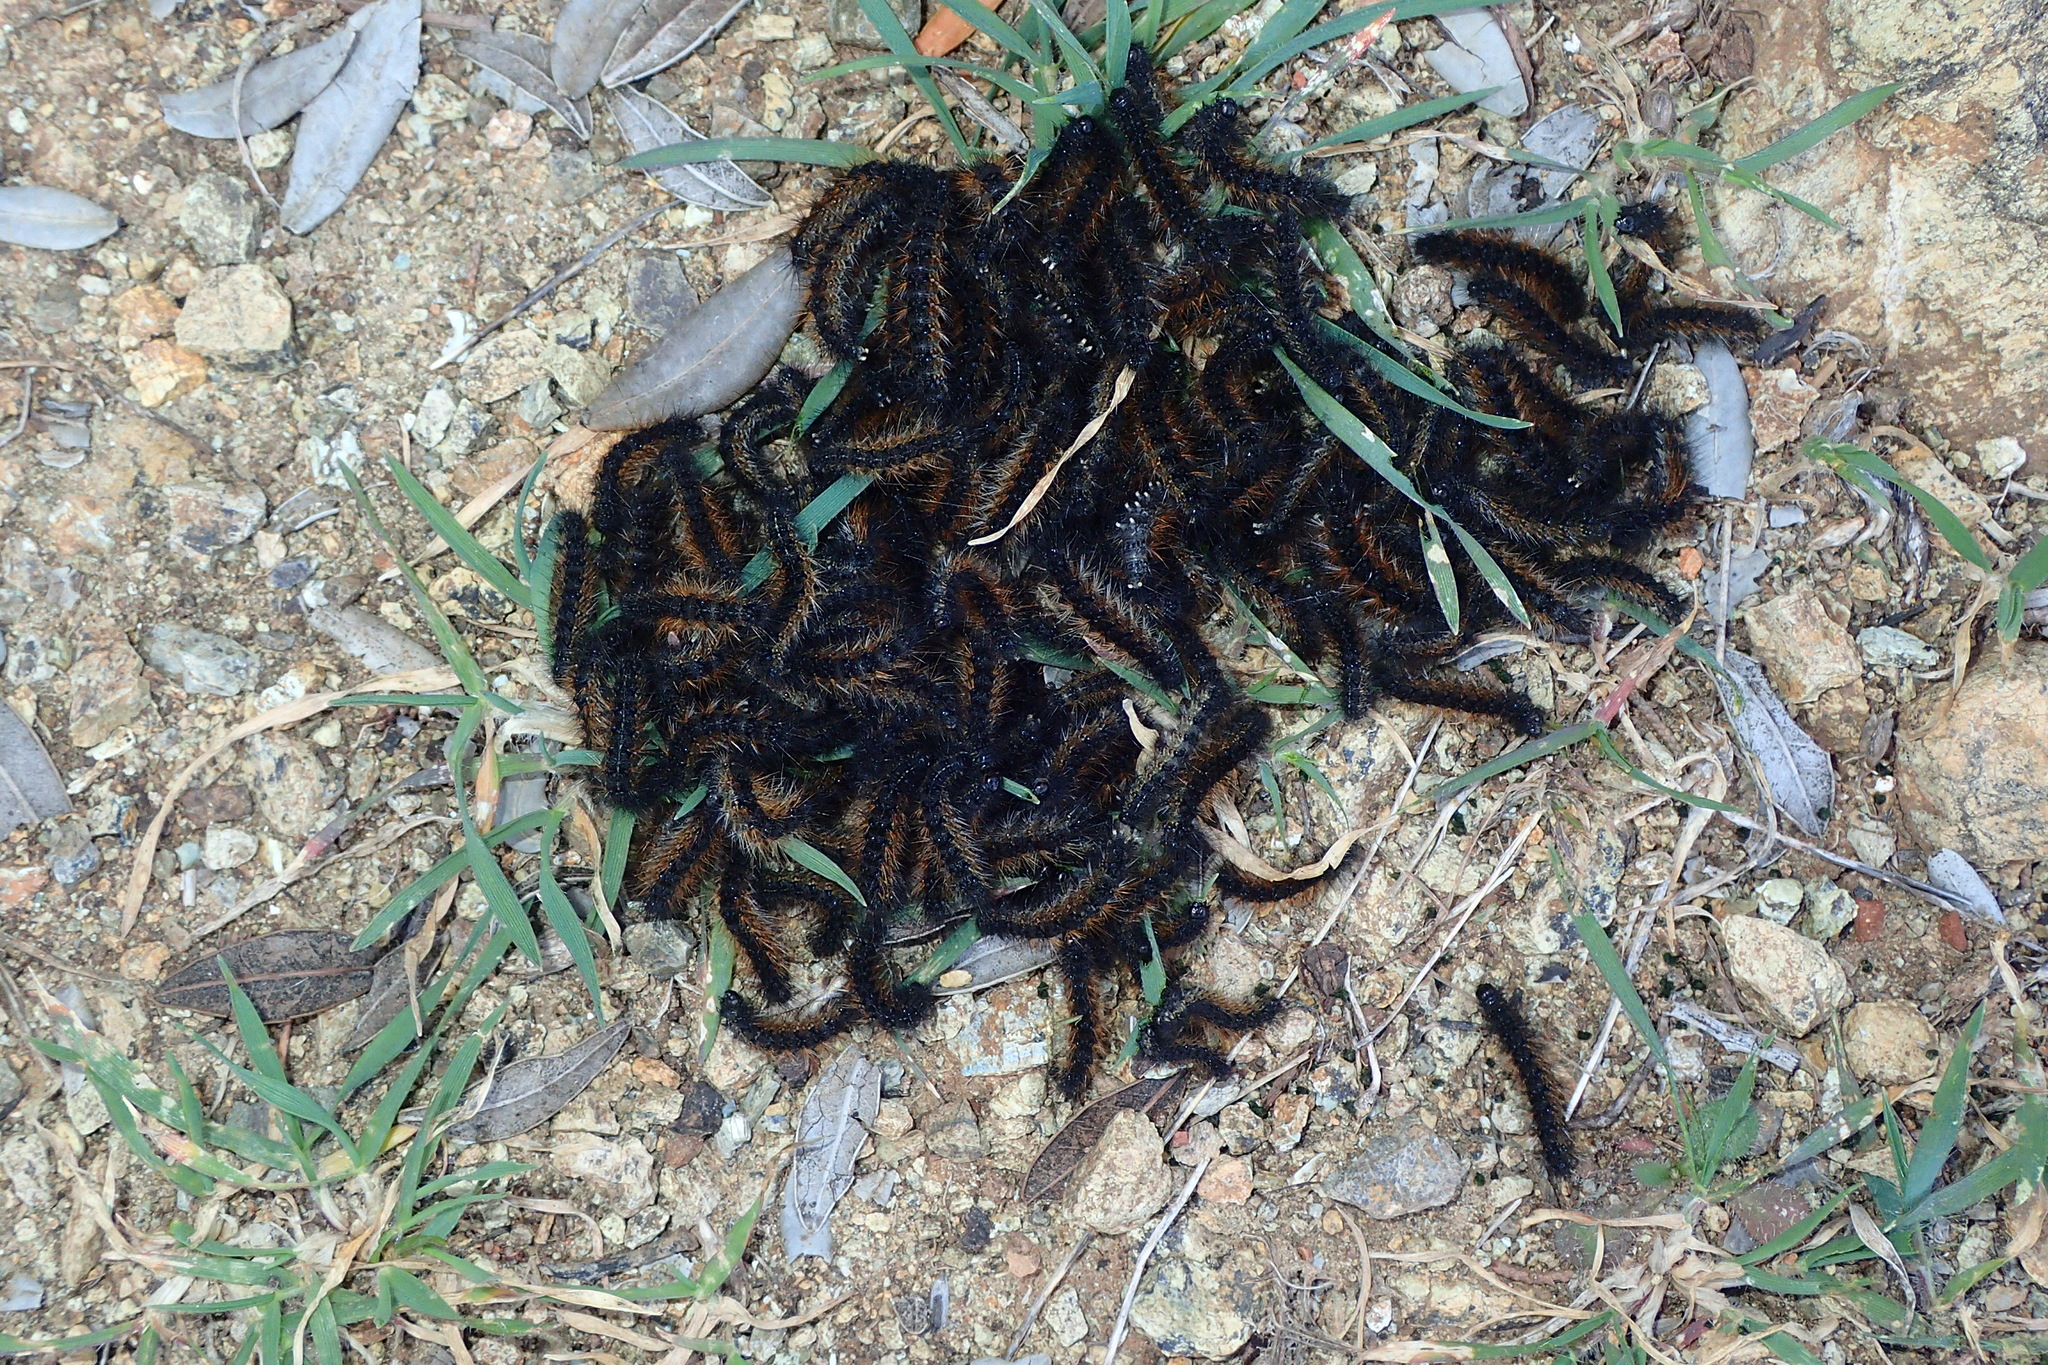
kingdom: Animalia
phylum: Arthropoda
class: Insecta
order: Lepidoptera
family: Erebidae
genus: Ocnogyna
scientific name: Ocnogyna loewii
